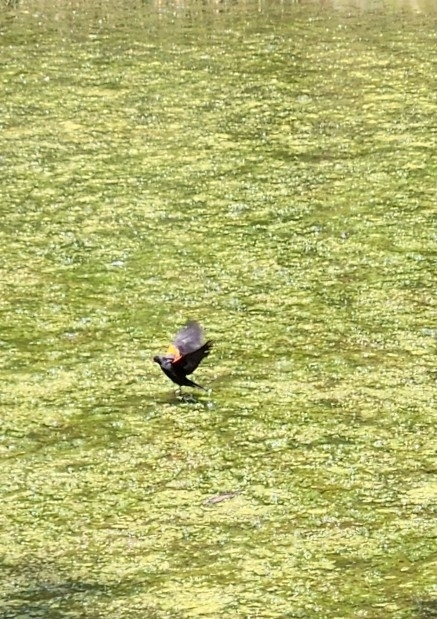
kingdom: Animalia
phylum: Chordata
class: Aves
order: Passeriformes
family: Icteridae
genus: Agelaius
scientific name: Agelaius phoeniceus
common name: Red-winged blackbird
